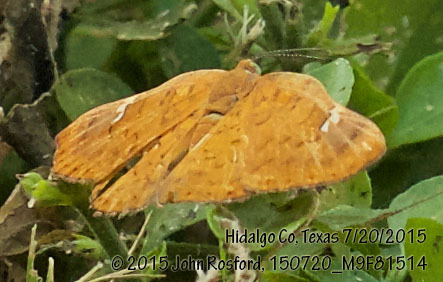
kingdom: Animalia
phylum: Arthropoda
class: Insecta
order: Lepidoptera
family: Riodinidae
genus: Curvie
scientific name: Curvie emesia
